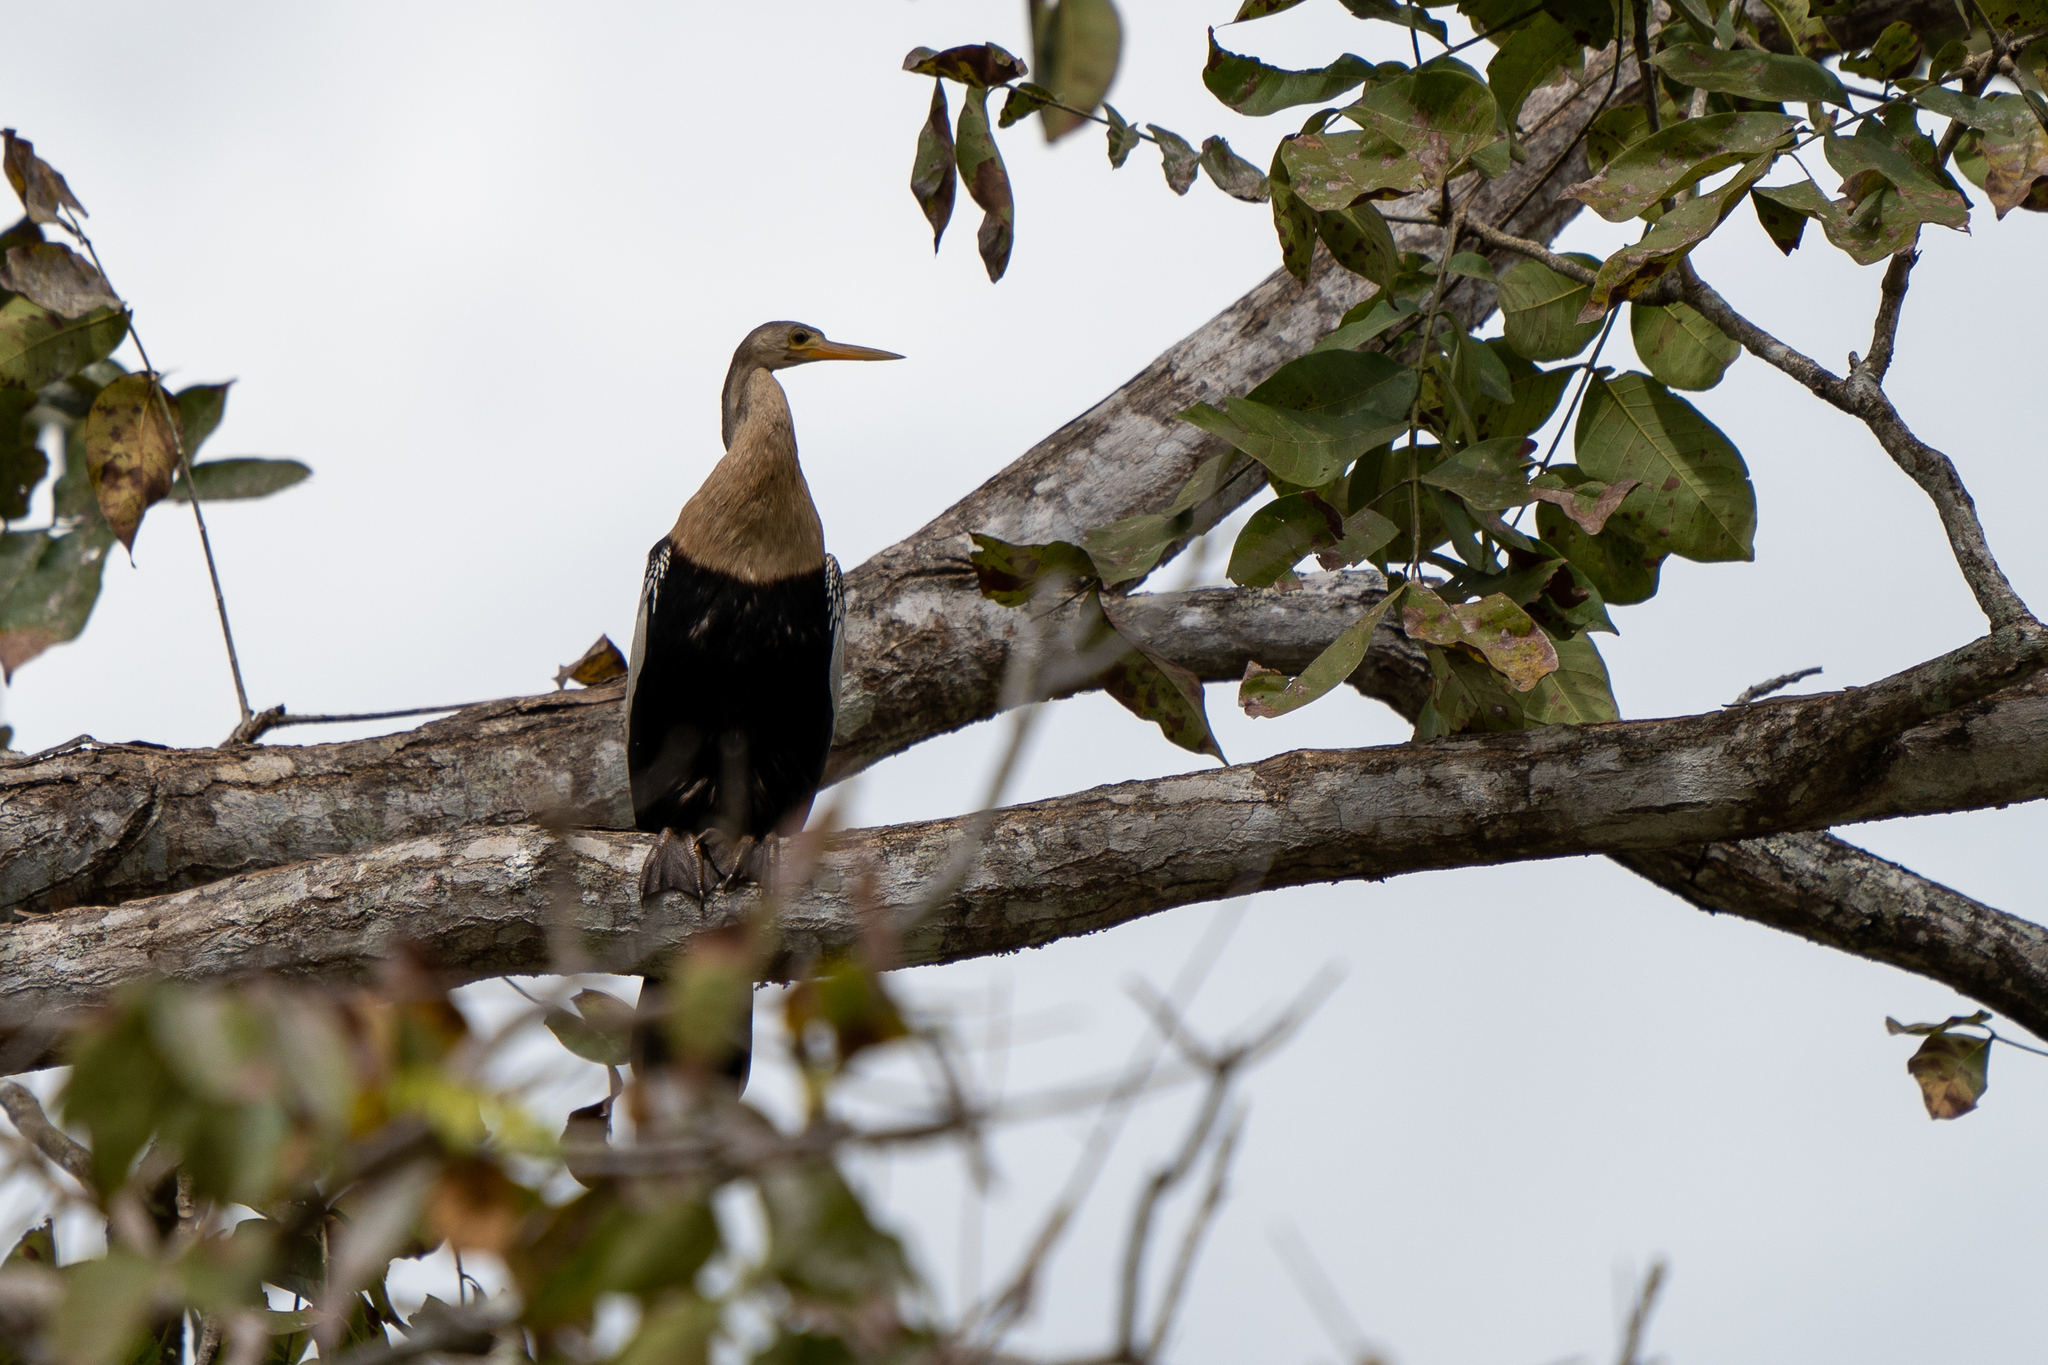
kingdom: Animalia
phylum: Chordata
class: Aves
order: Suliformes
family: Anhingidae
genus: Anhinga
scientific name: Anhinga anhinga
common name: Anhinga
